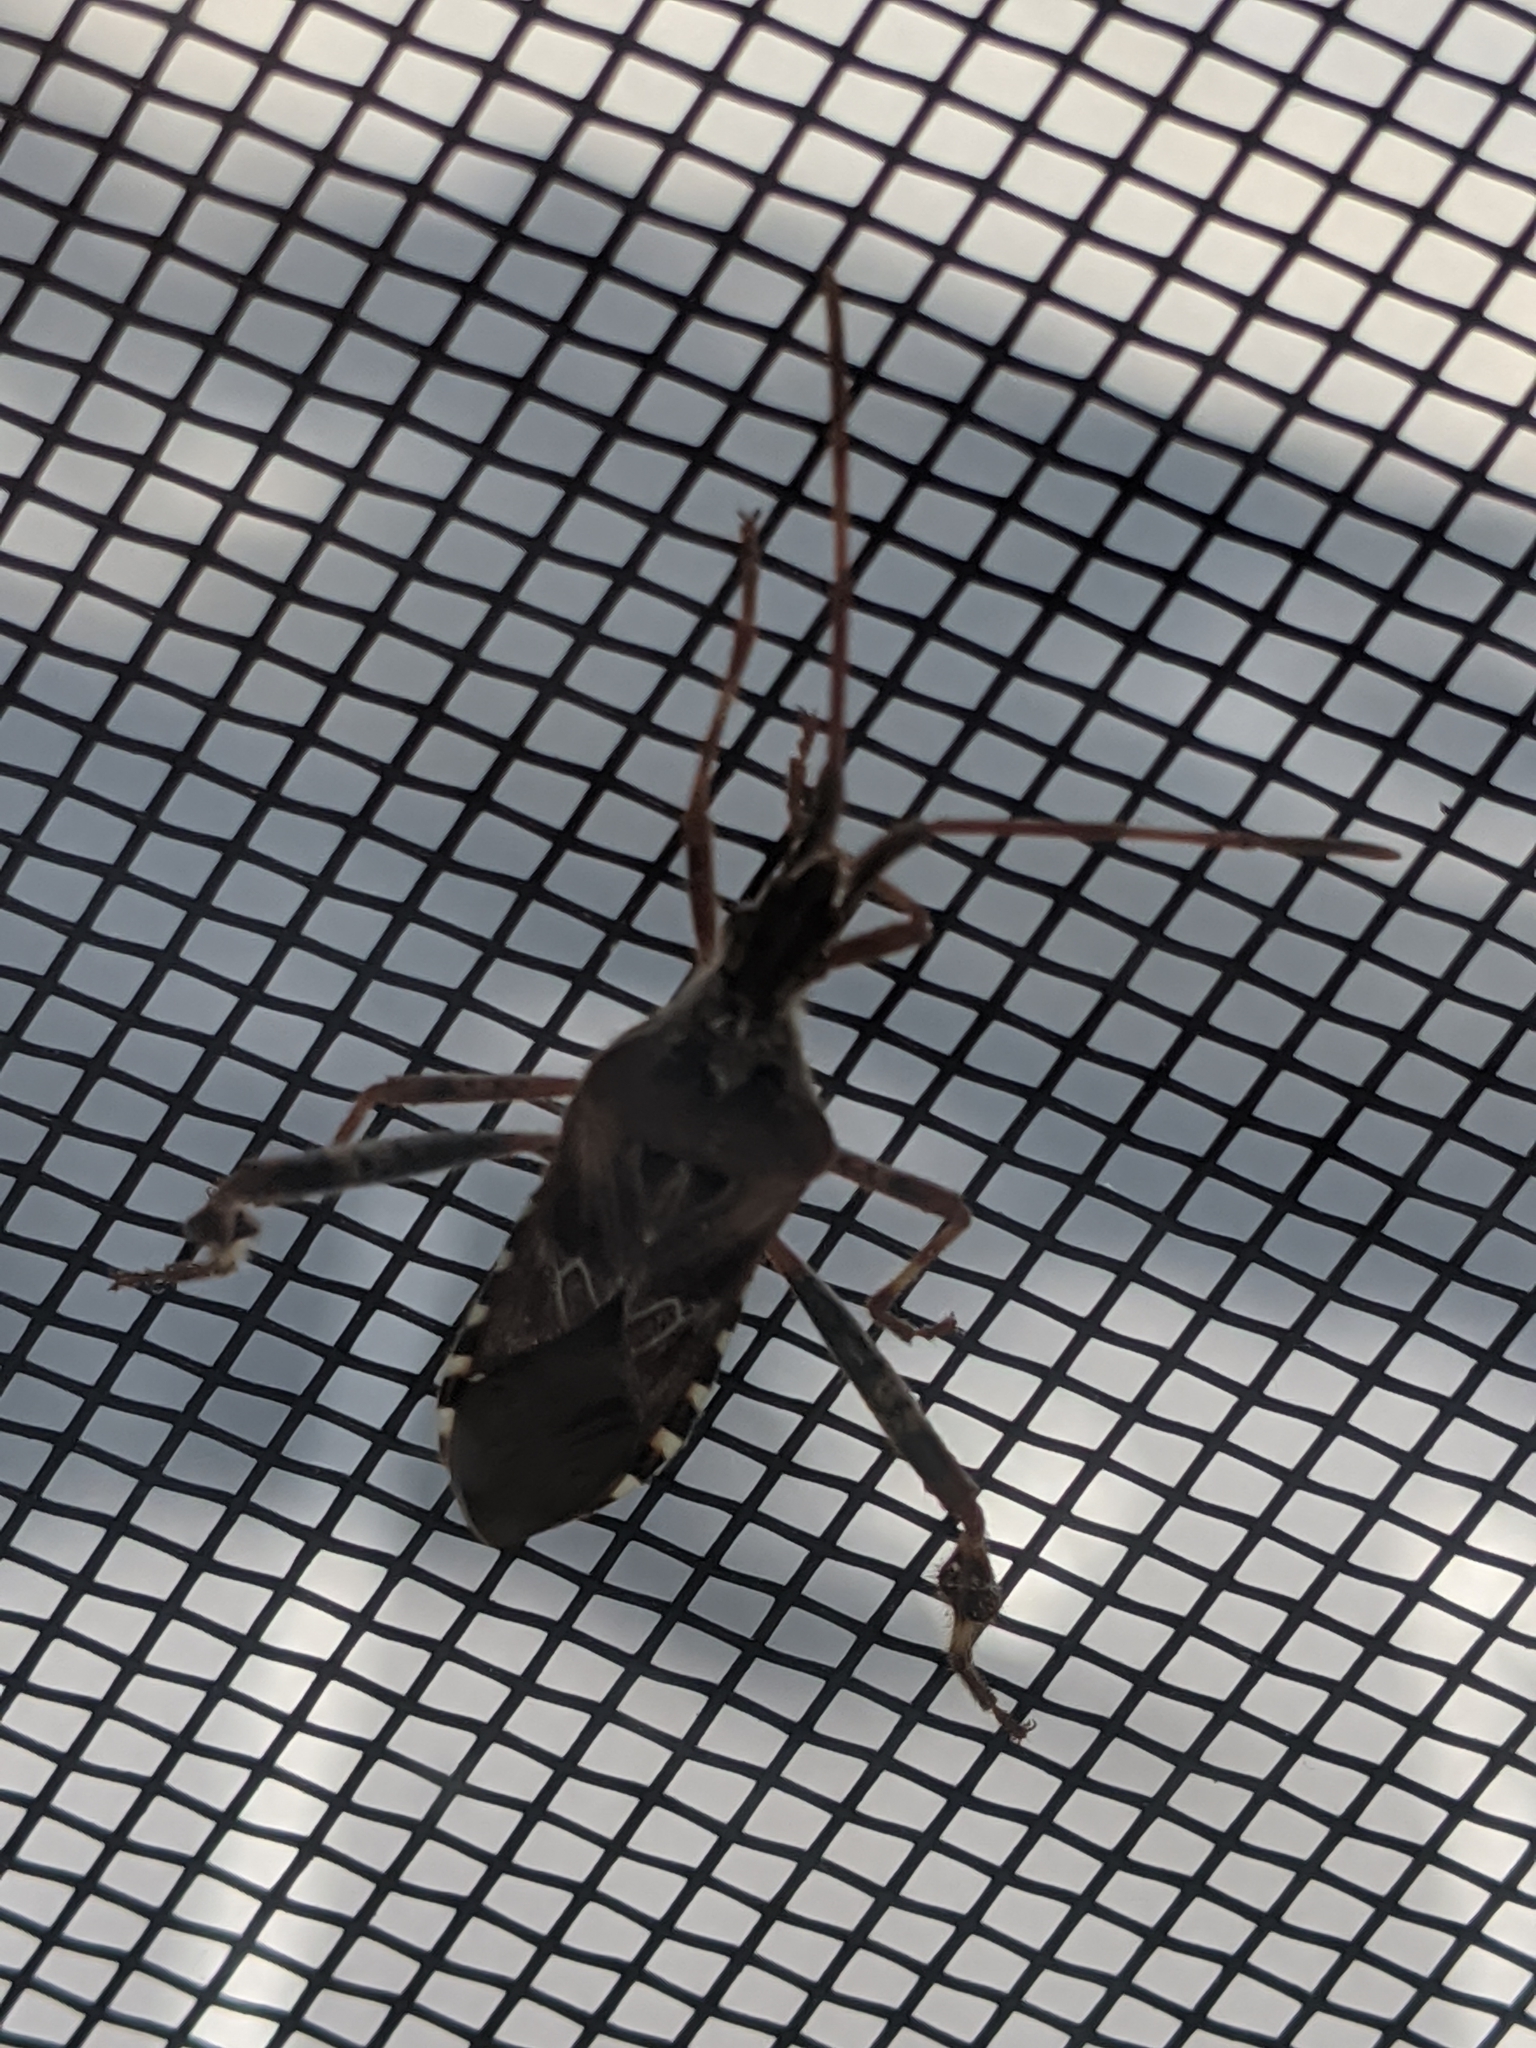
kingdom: Animalia
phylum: Arthropoda
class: Insecta
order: Hemiptera
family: Coreidae
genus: Leptoglossus
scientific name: Leptoglossus occidentalis
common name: Western conifer-seed bug
